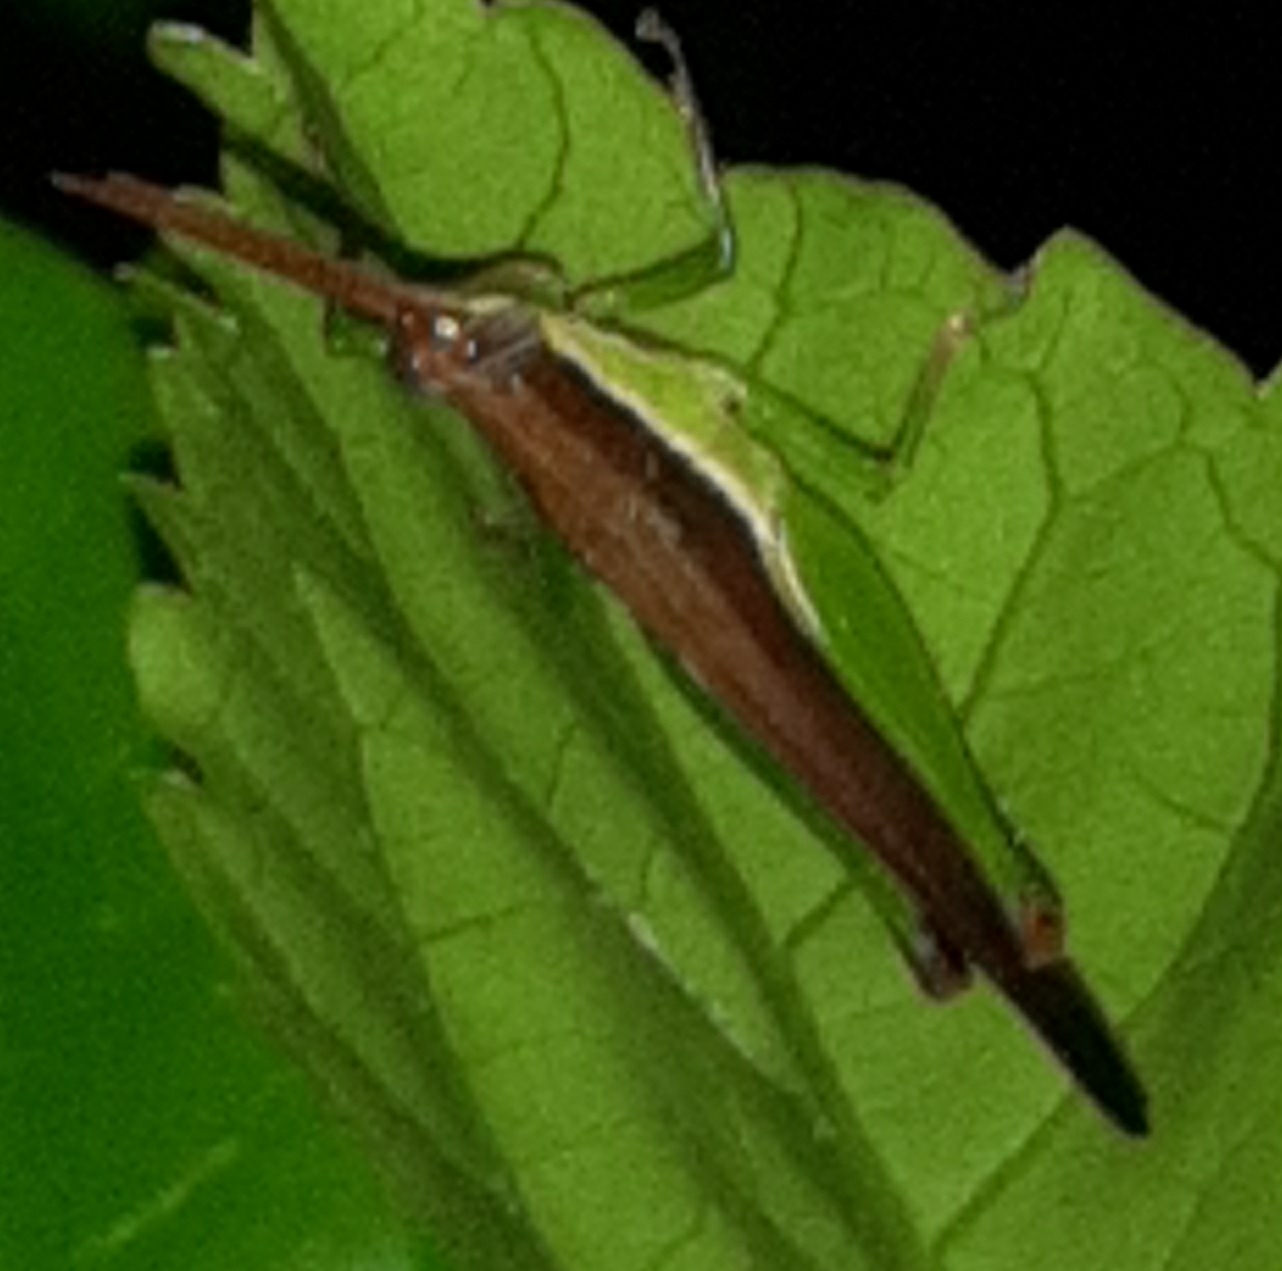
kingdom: Animalia
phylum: Arthropoda
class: Insecta
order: Orthoptera
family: Acrididae
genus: Stenopola
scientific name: Stenopola dorsalis
